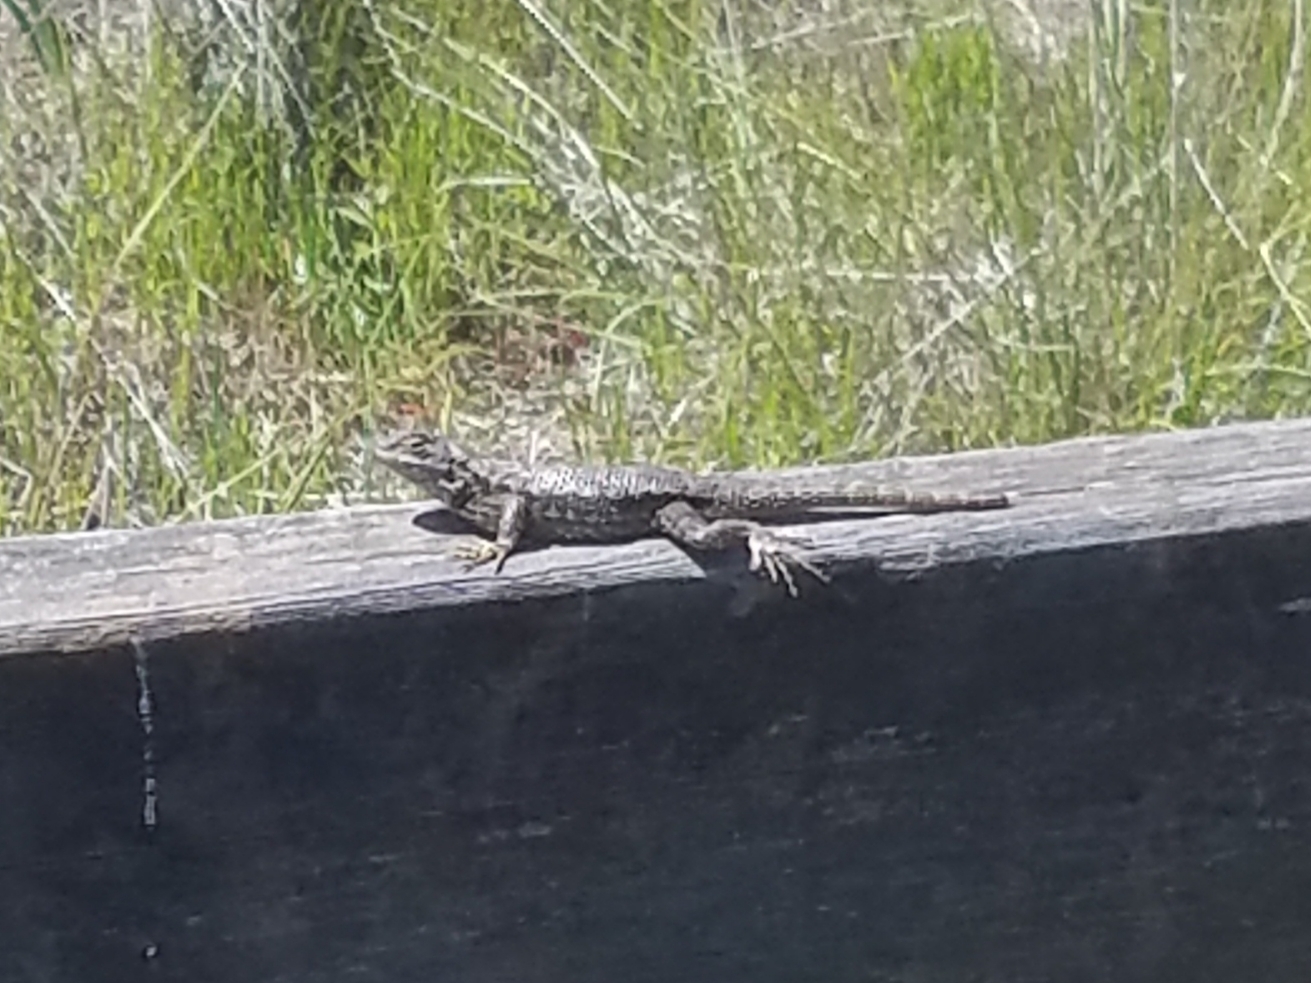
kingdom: Animalia
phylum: Chordata
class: Squamata
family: Phrynosomatidae
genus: Sceloporus
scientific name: Sceloporus occidentalis
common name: Western fence lizard
